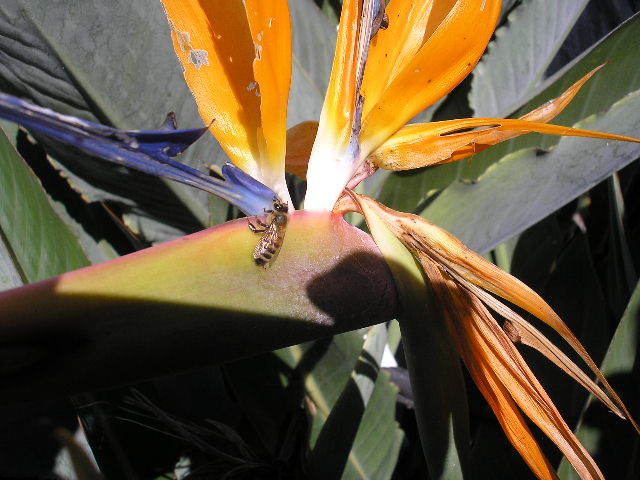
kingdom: Animalia
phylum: Arthropoda
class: Insecta
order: Hymenoptera
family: Apidae
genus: Apis
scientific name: Apis mellifera
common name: Honey bee
